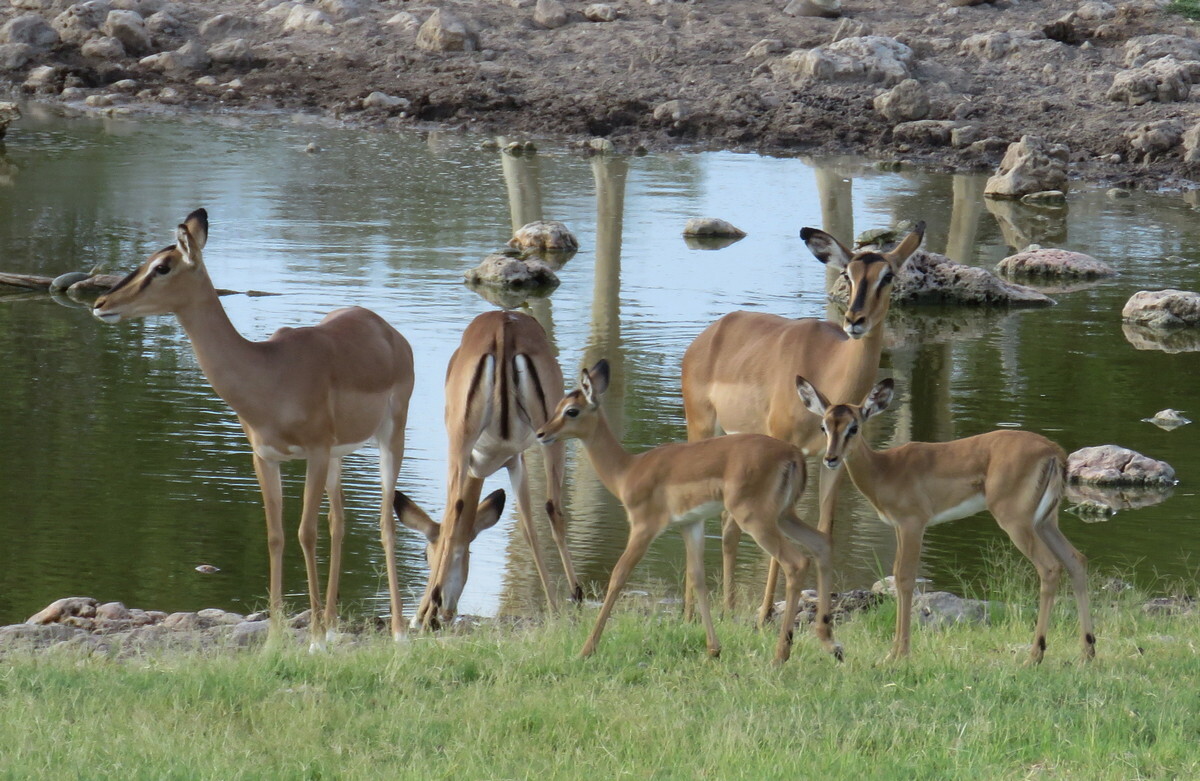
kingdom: Animalia
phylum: Chordata
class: Mammalia
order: Artiodactyla
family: Bovidae
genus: Aepyceros
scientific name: Aepyceros melampus
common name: Impala
